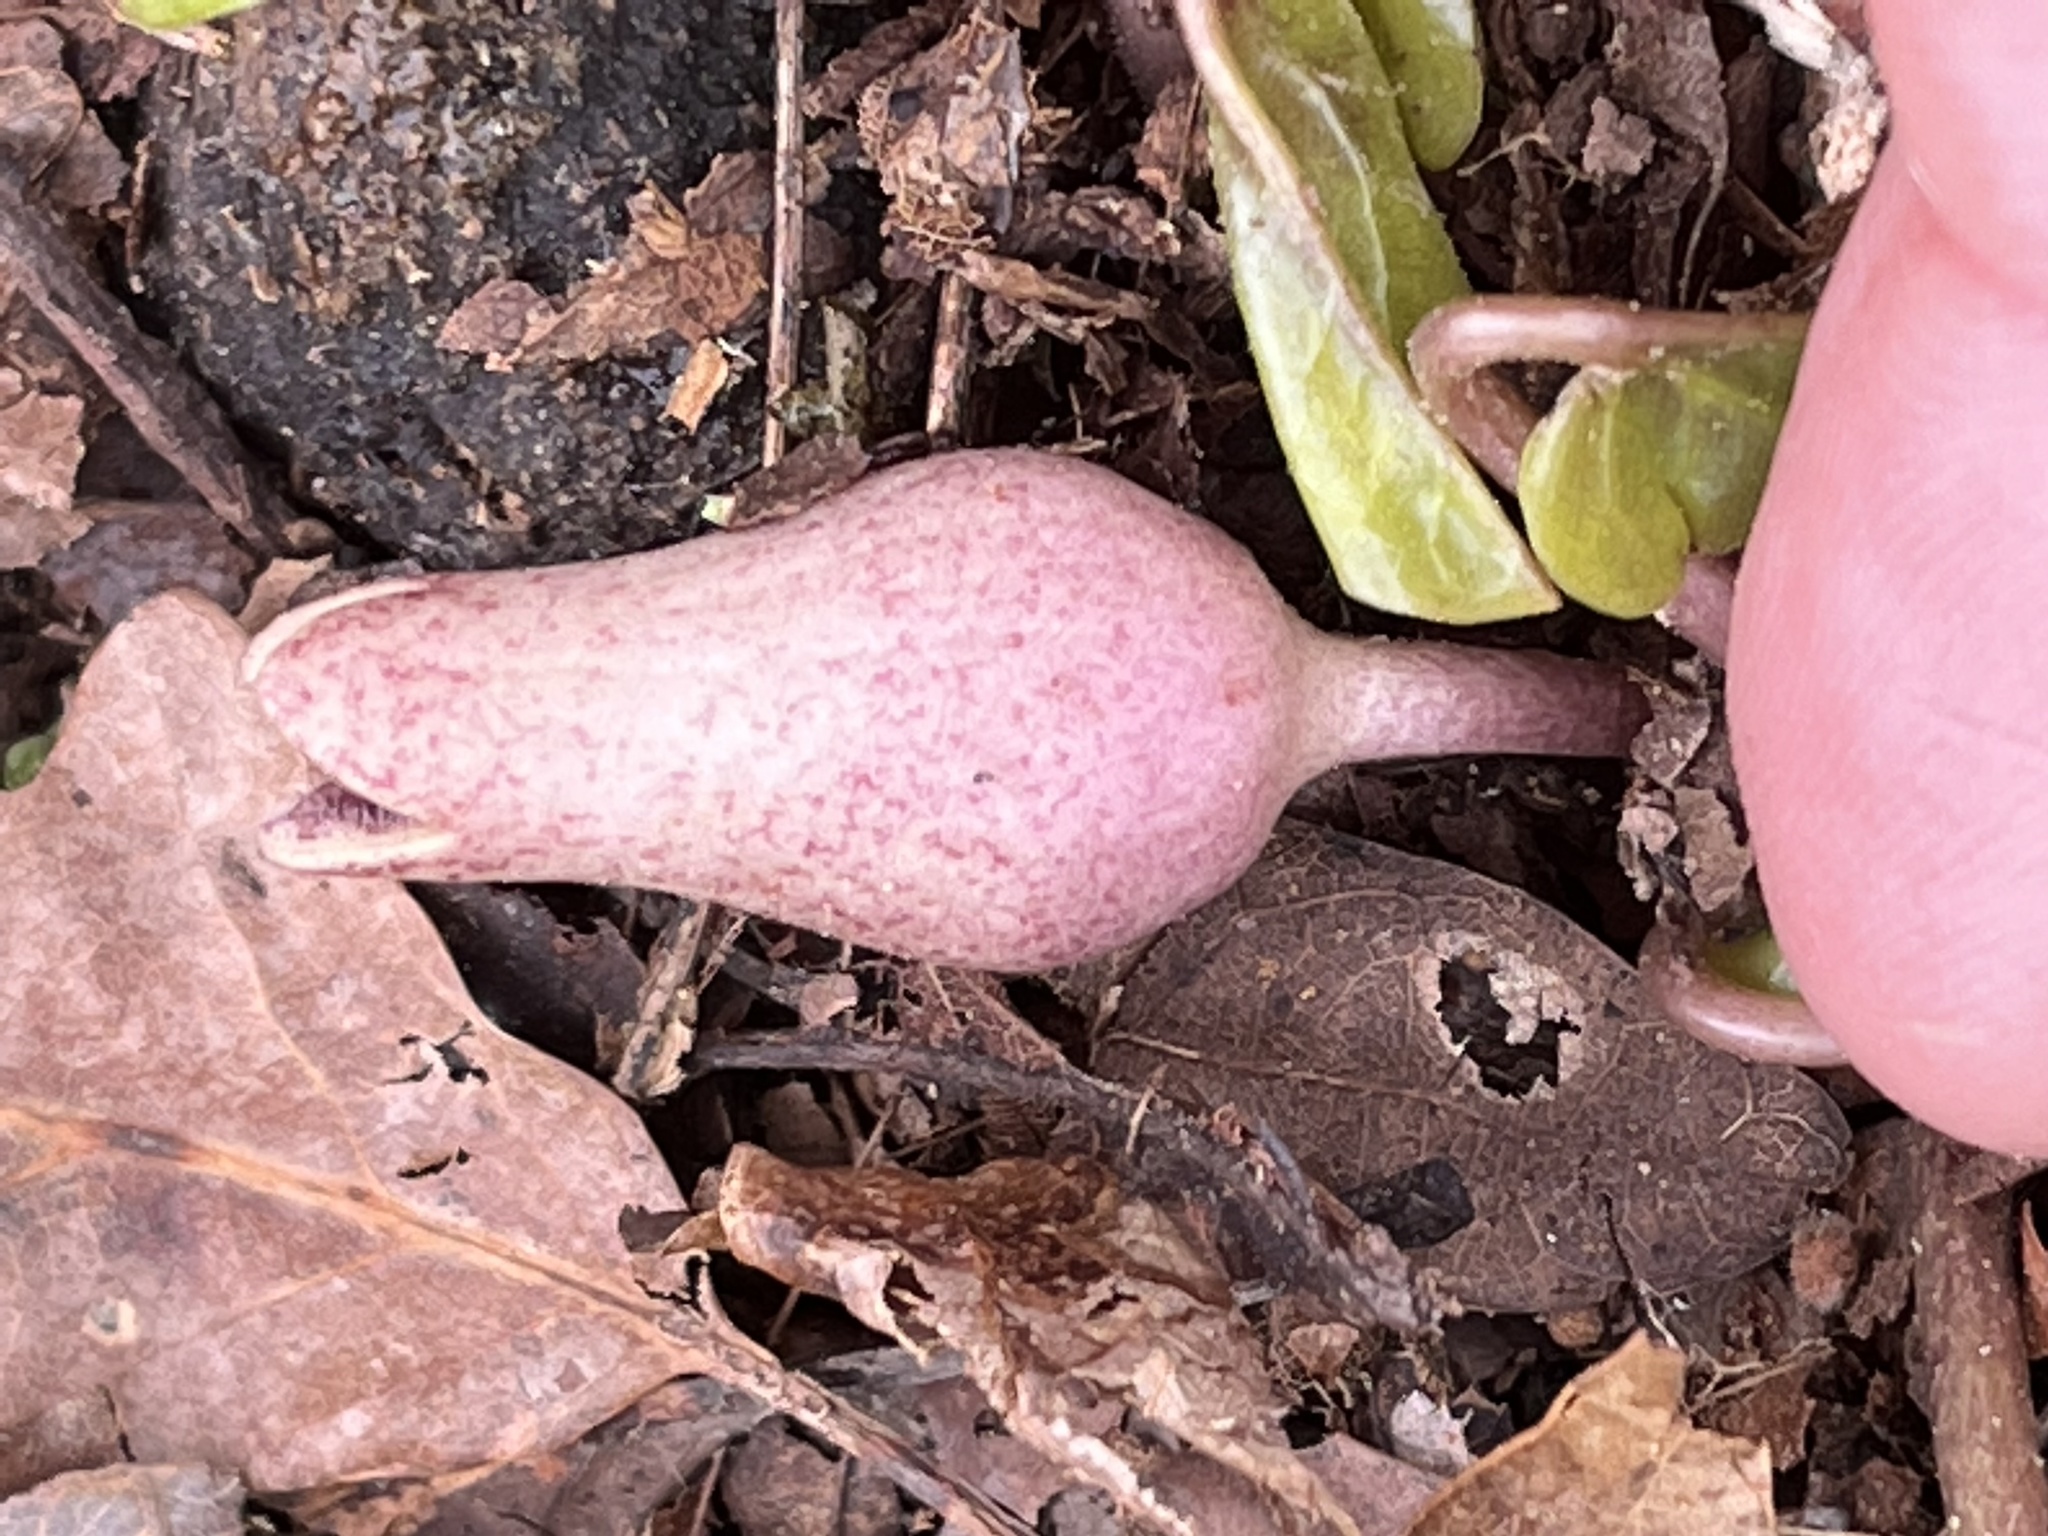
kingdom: Plantae
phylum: Tracheophyta
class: Magnoliopsida
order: Piperales
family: Aristolochiaceae
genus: Hexastylis
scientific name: Hexastylis arifolia
